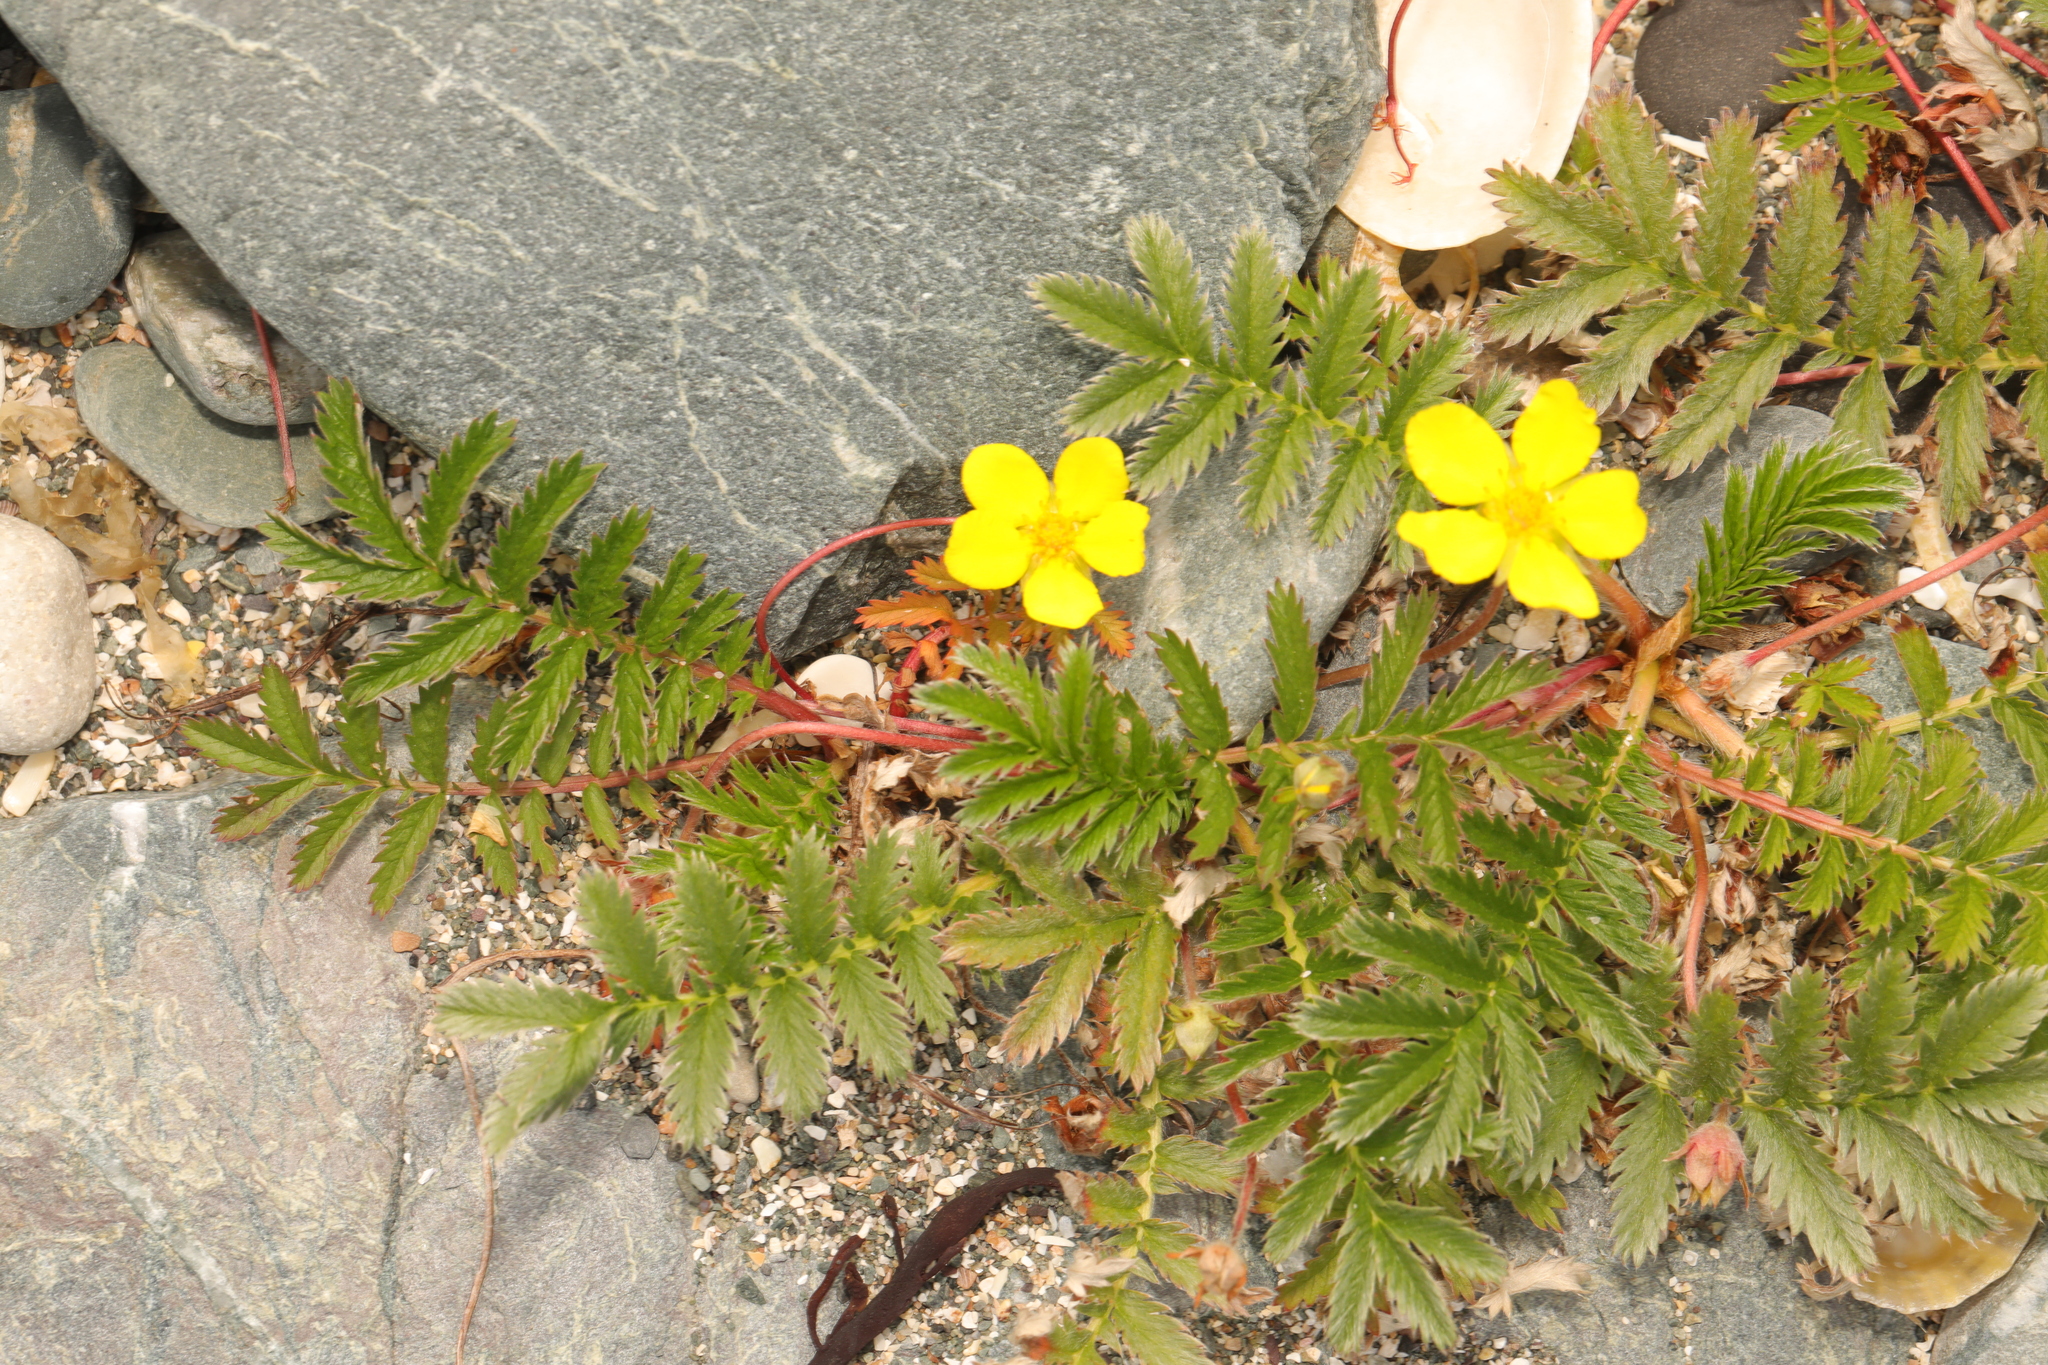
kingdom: Plantae
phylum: Tracheophyta
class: Magnoliopsida
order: Rosales
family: Rosaceae
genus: Argentina
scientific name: Argentina anserina
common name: Common silverweed
